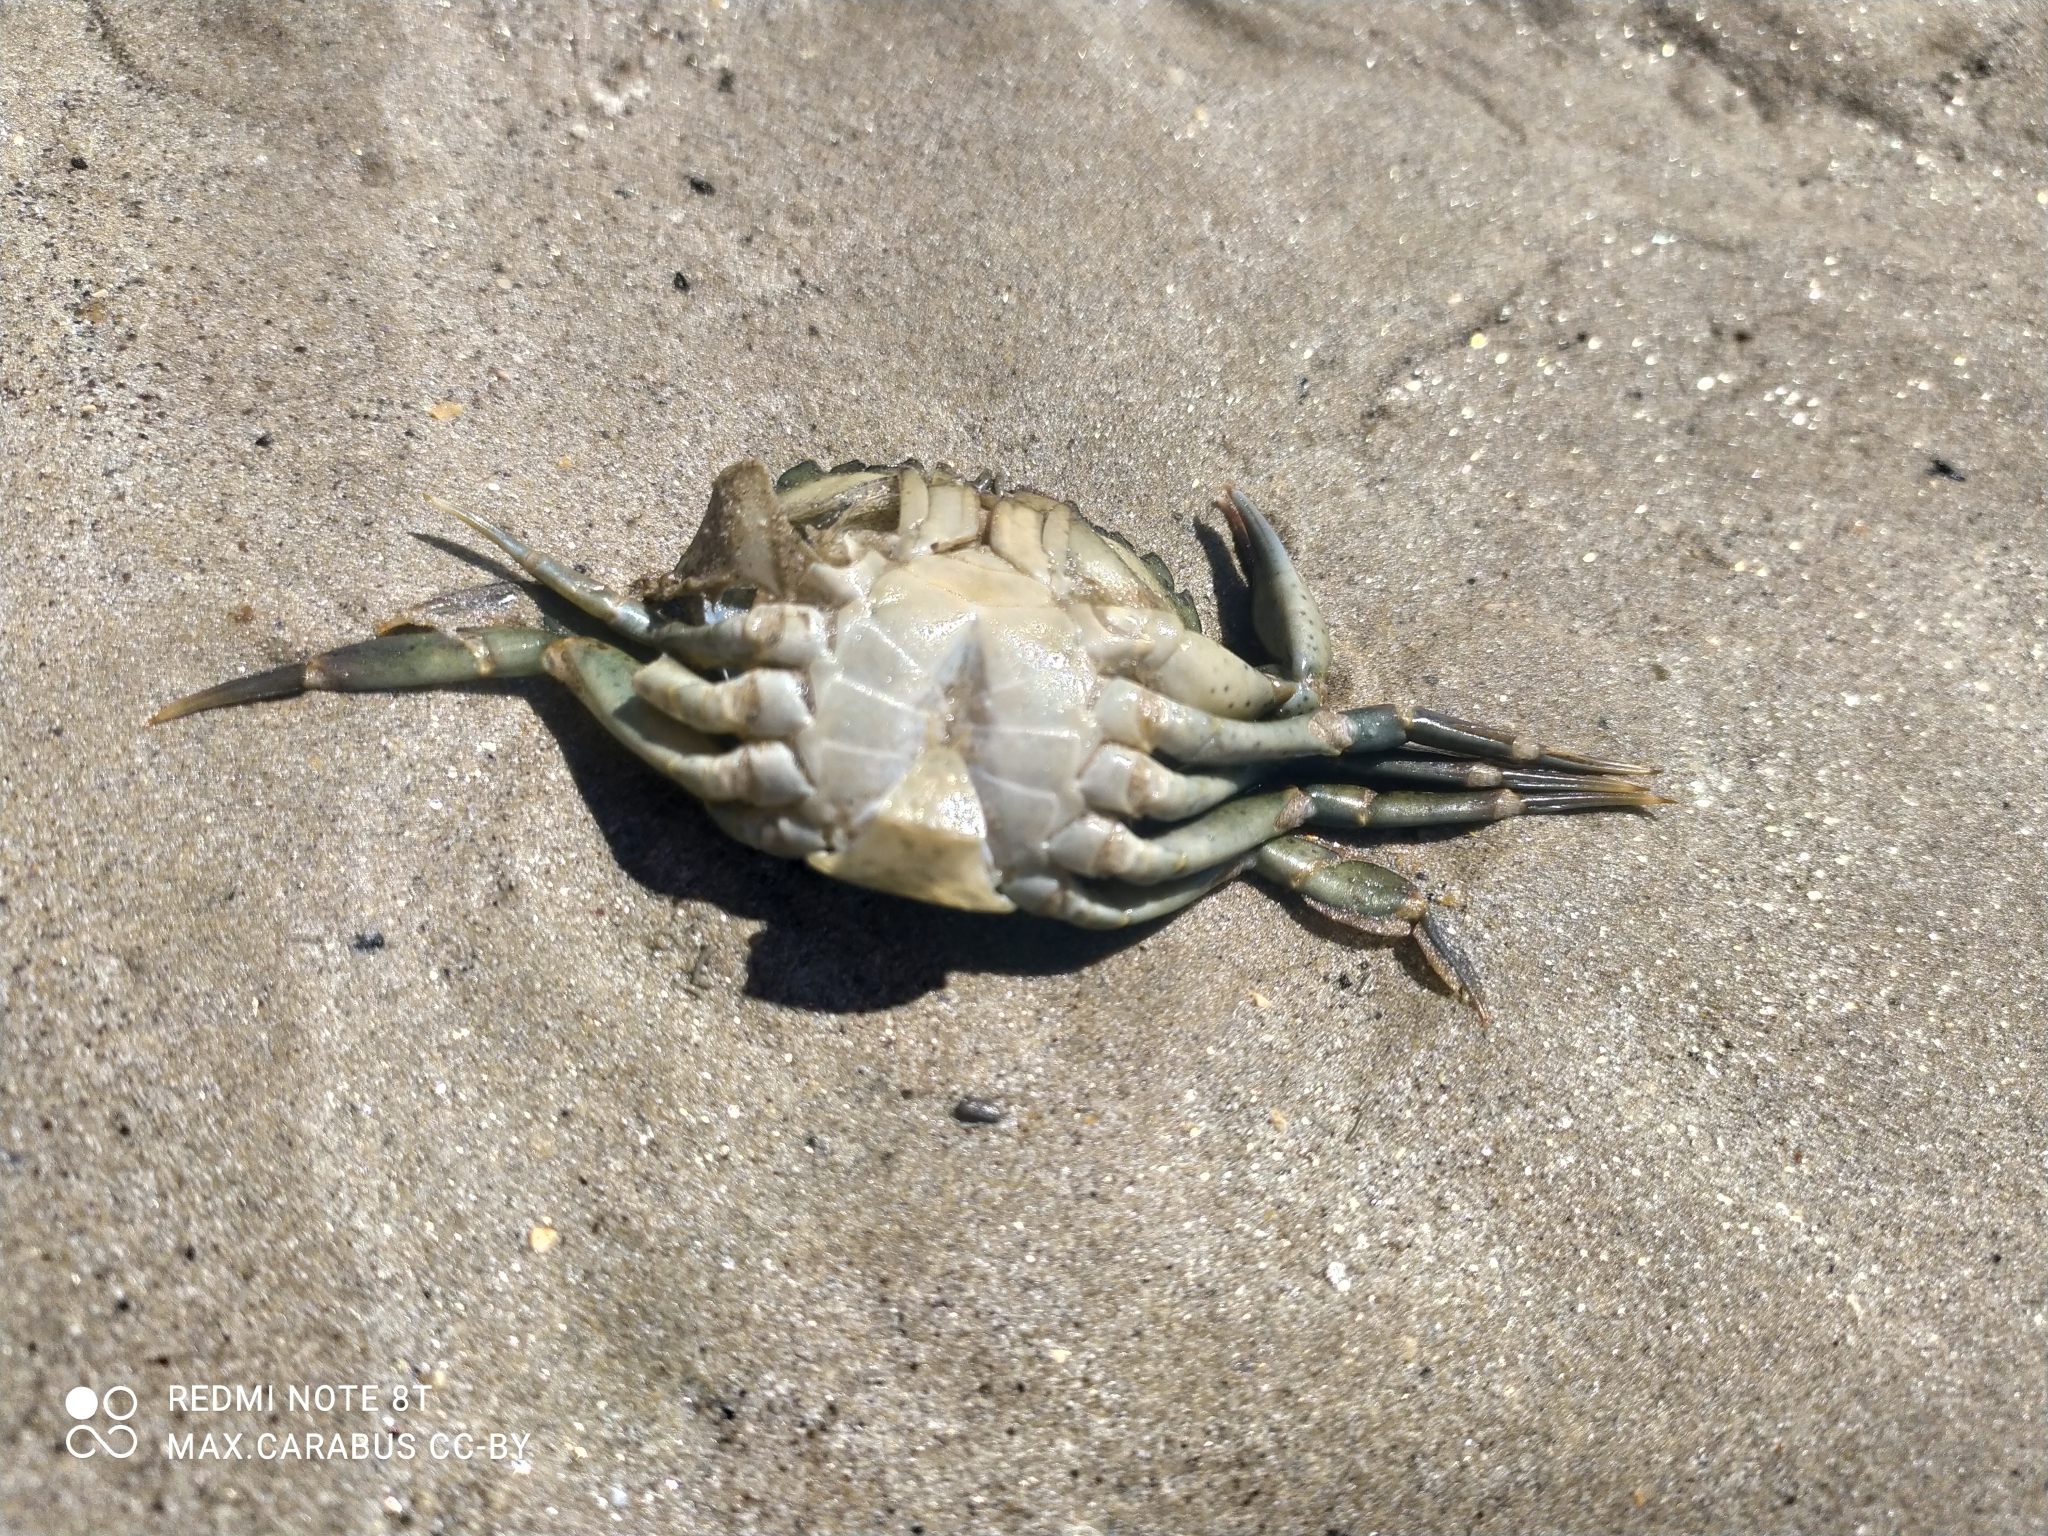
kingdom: Animalia
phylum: Arthropoda
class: Malacostraca
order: Decapoda
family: Carcinidae
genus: Carcinus
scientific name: Carcinus maenas
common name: European green crab
